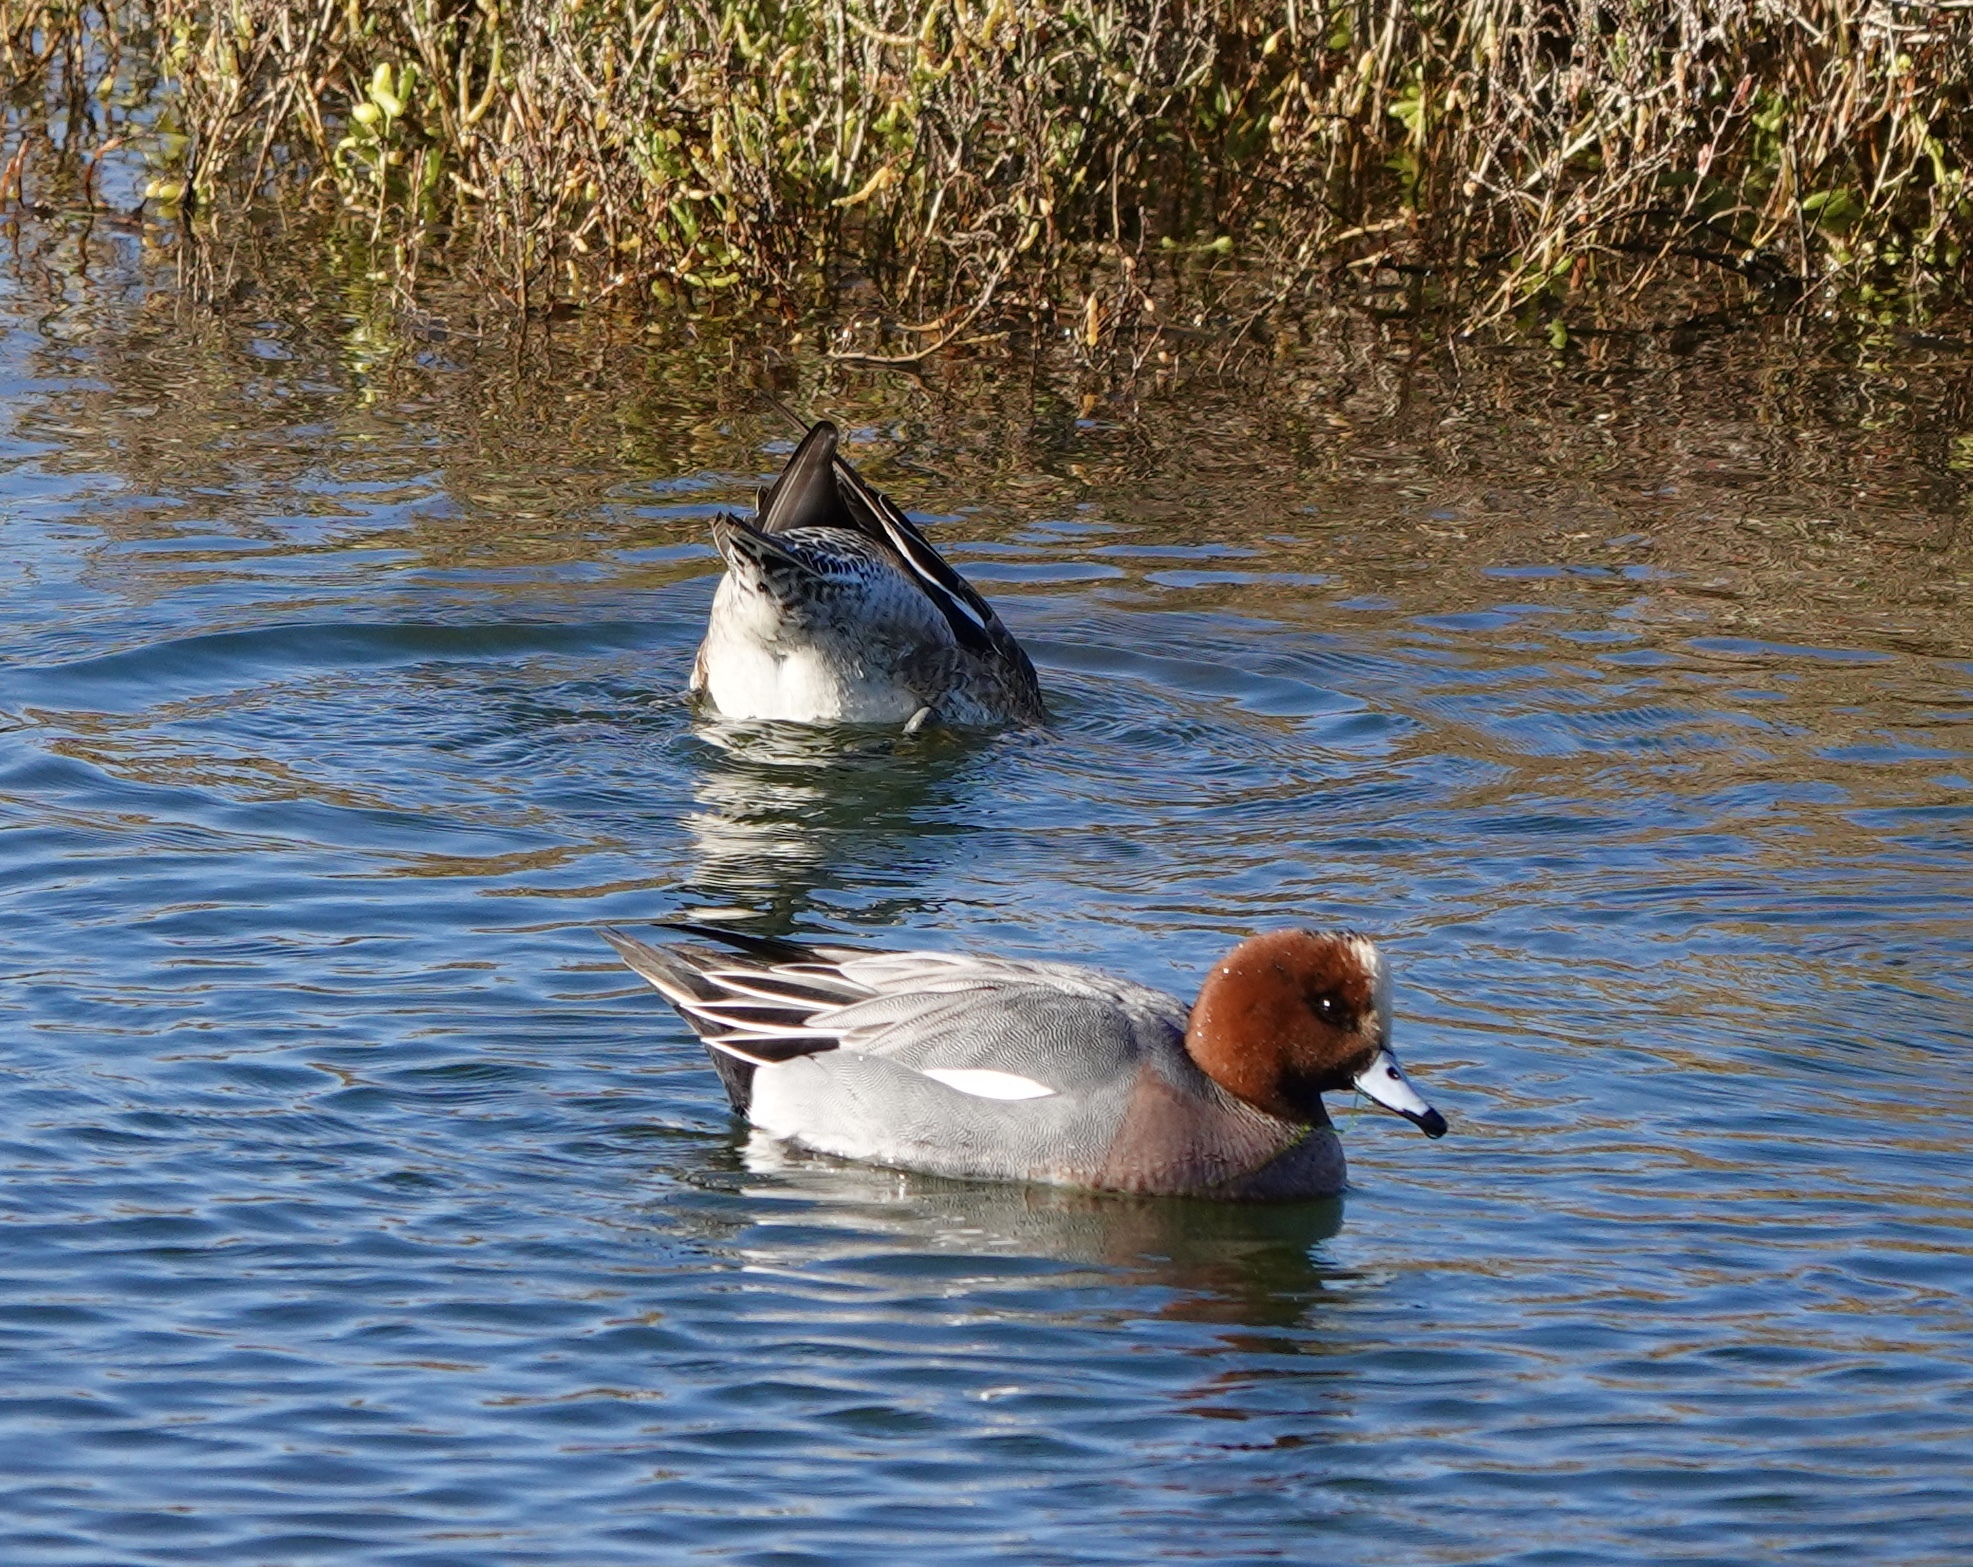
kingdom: Animalia
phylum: Chordata
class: Aves
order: Anseriformes
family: Anatidae
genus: Mareca
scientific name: Mareca penelope
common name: Eurasian wigeon
